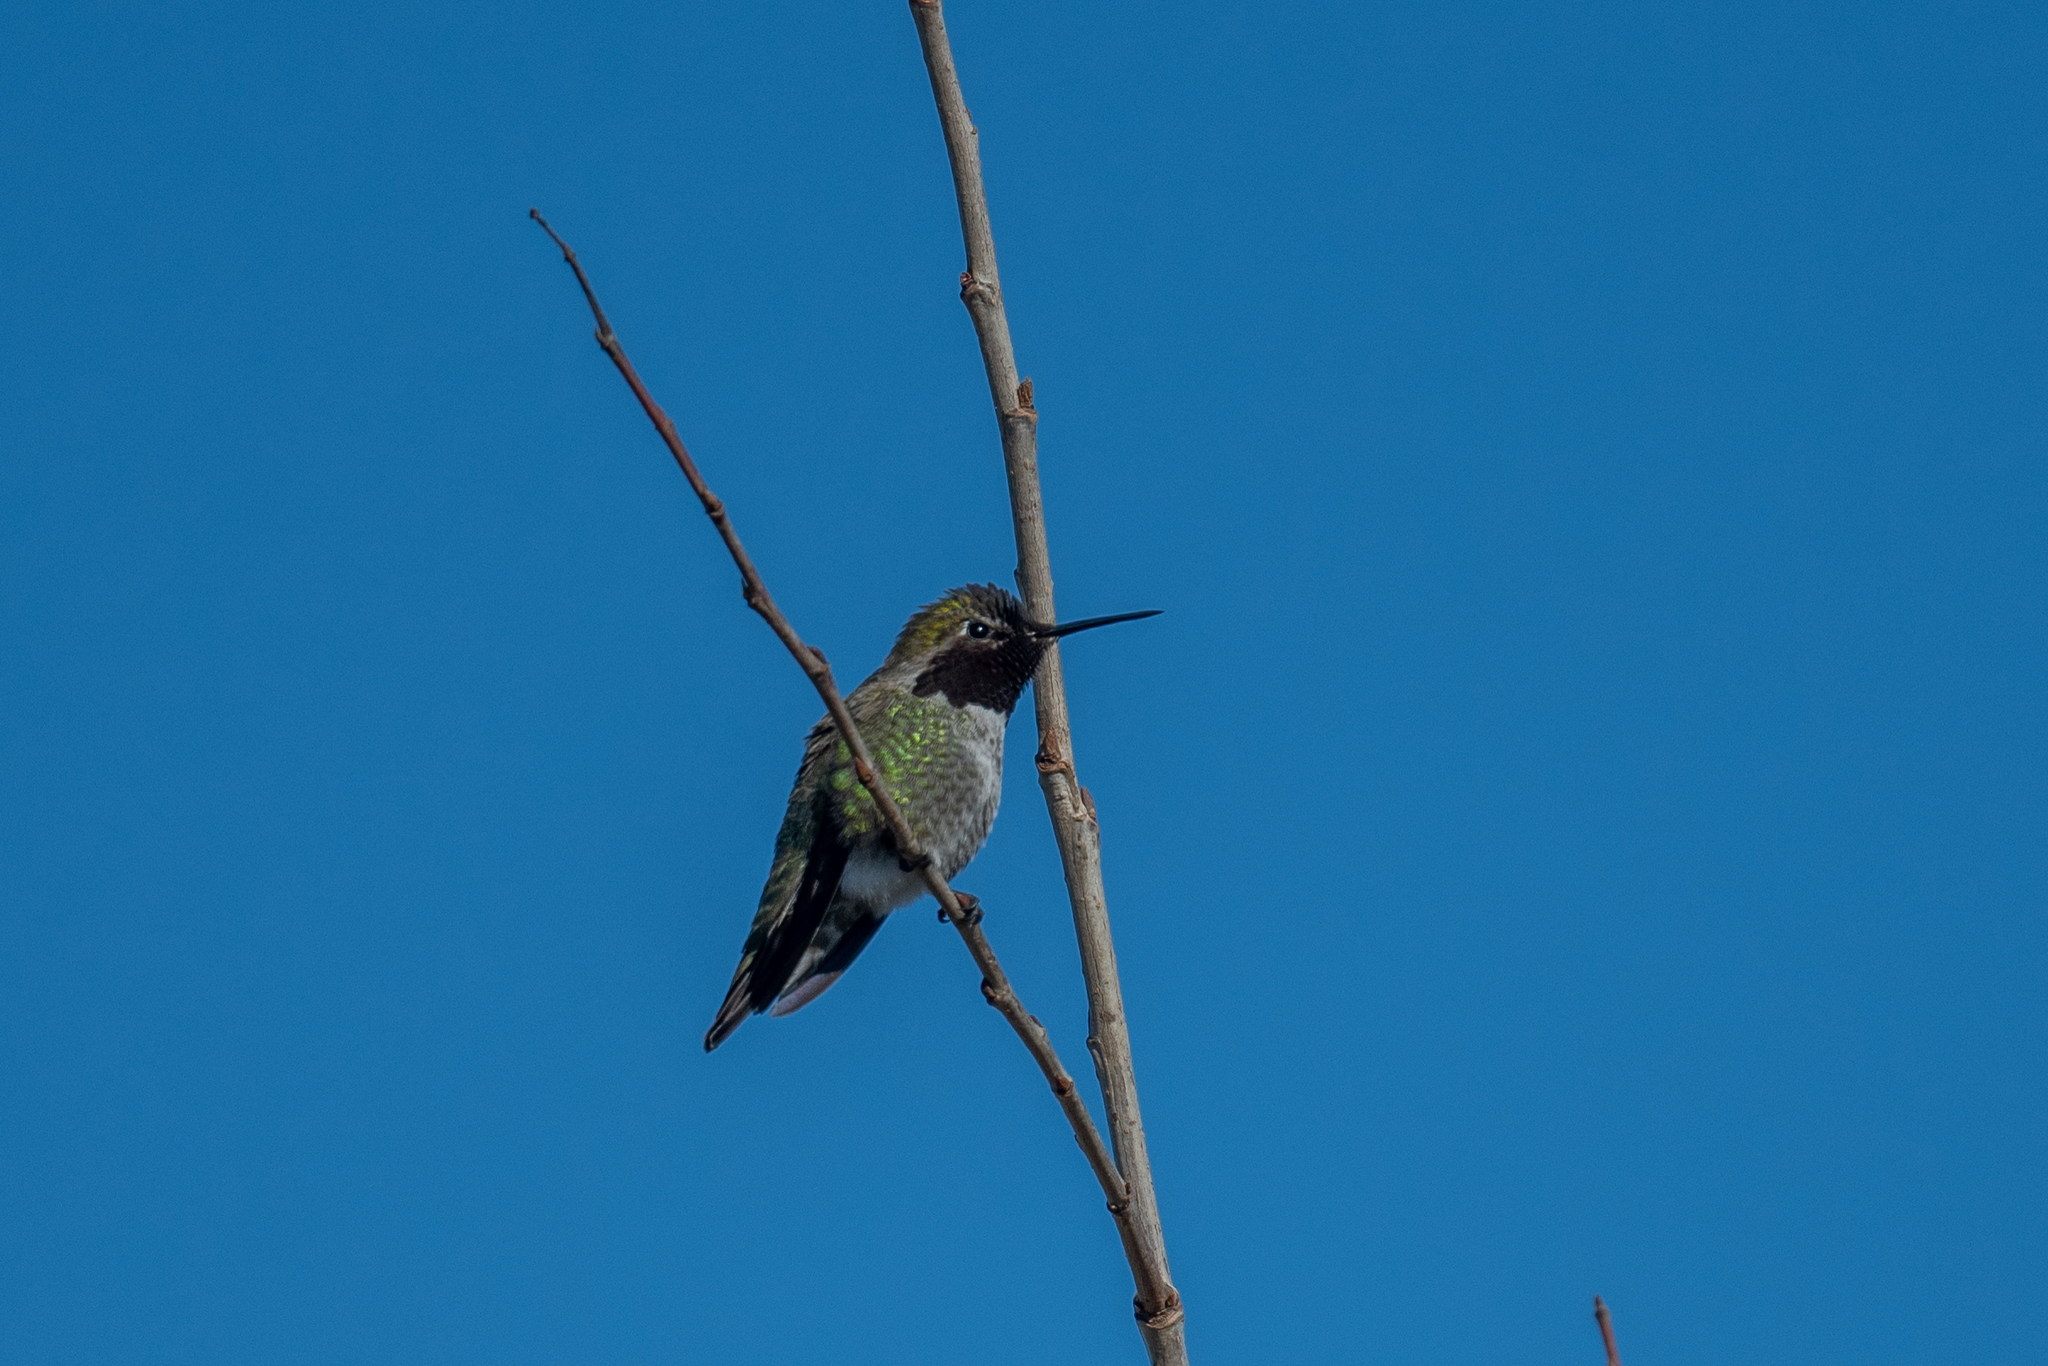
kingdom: Animalia
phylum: Chordata
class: Aves
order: Apodiformes
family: Trochilidae
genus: Calypte
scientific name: Calypte anna
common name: Anna's hummingbird
